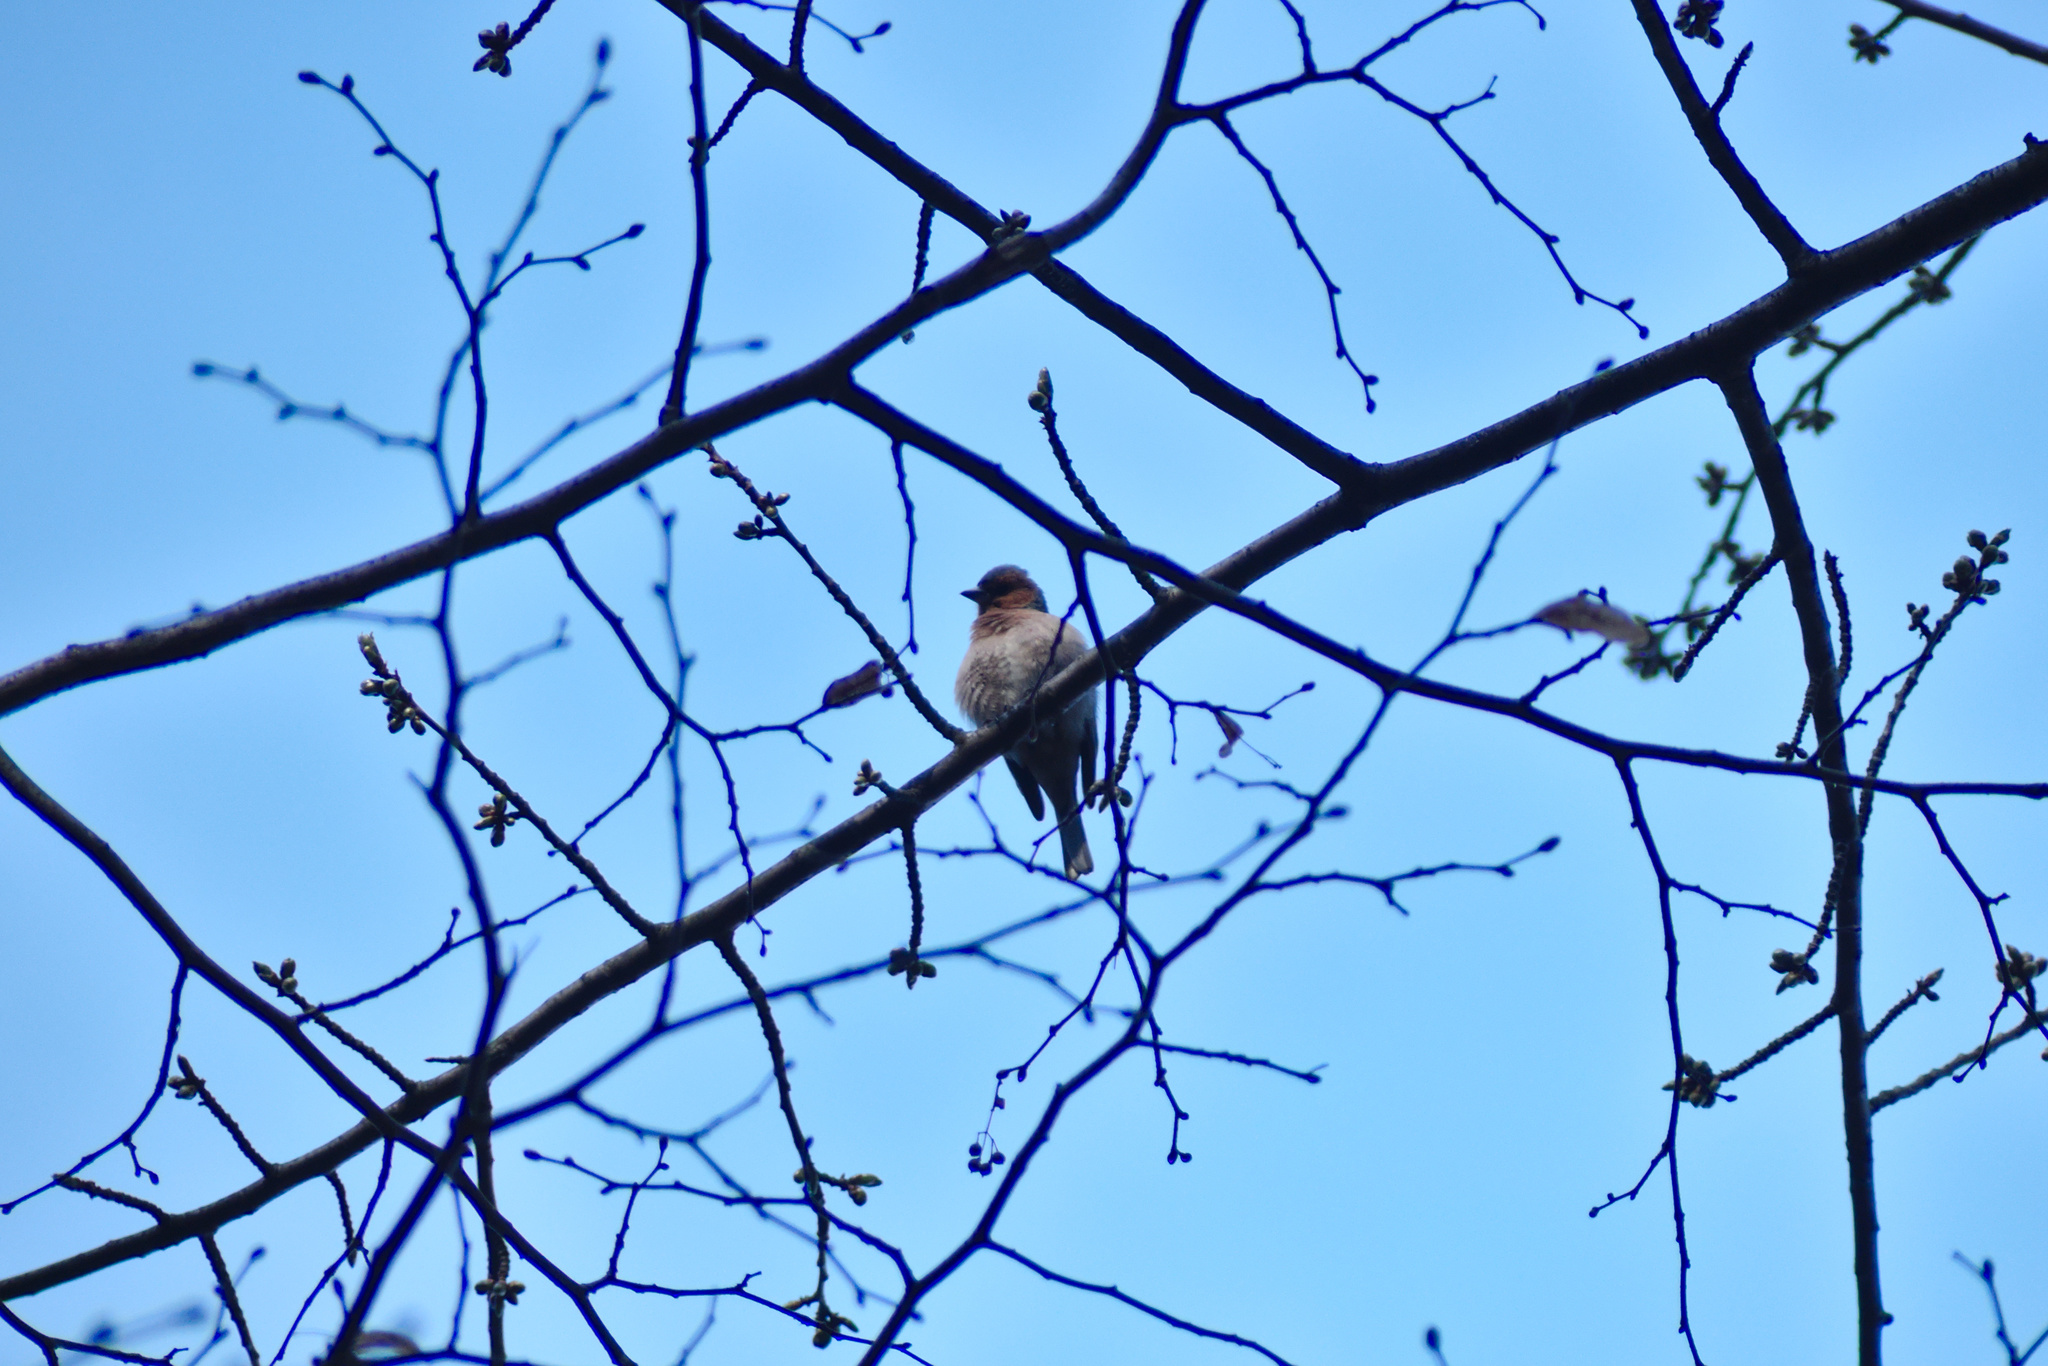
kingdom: Animalia
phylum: Chordata
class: Aves
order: Passeriformes
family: Fringillidae
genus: Fringilla
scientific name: Fringilla coelebs
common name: Common chaffinch
